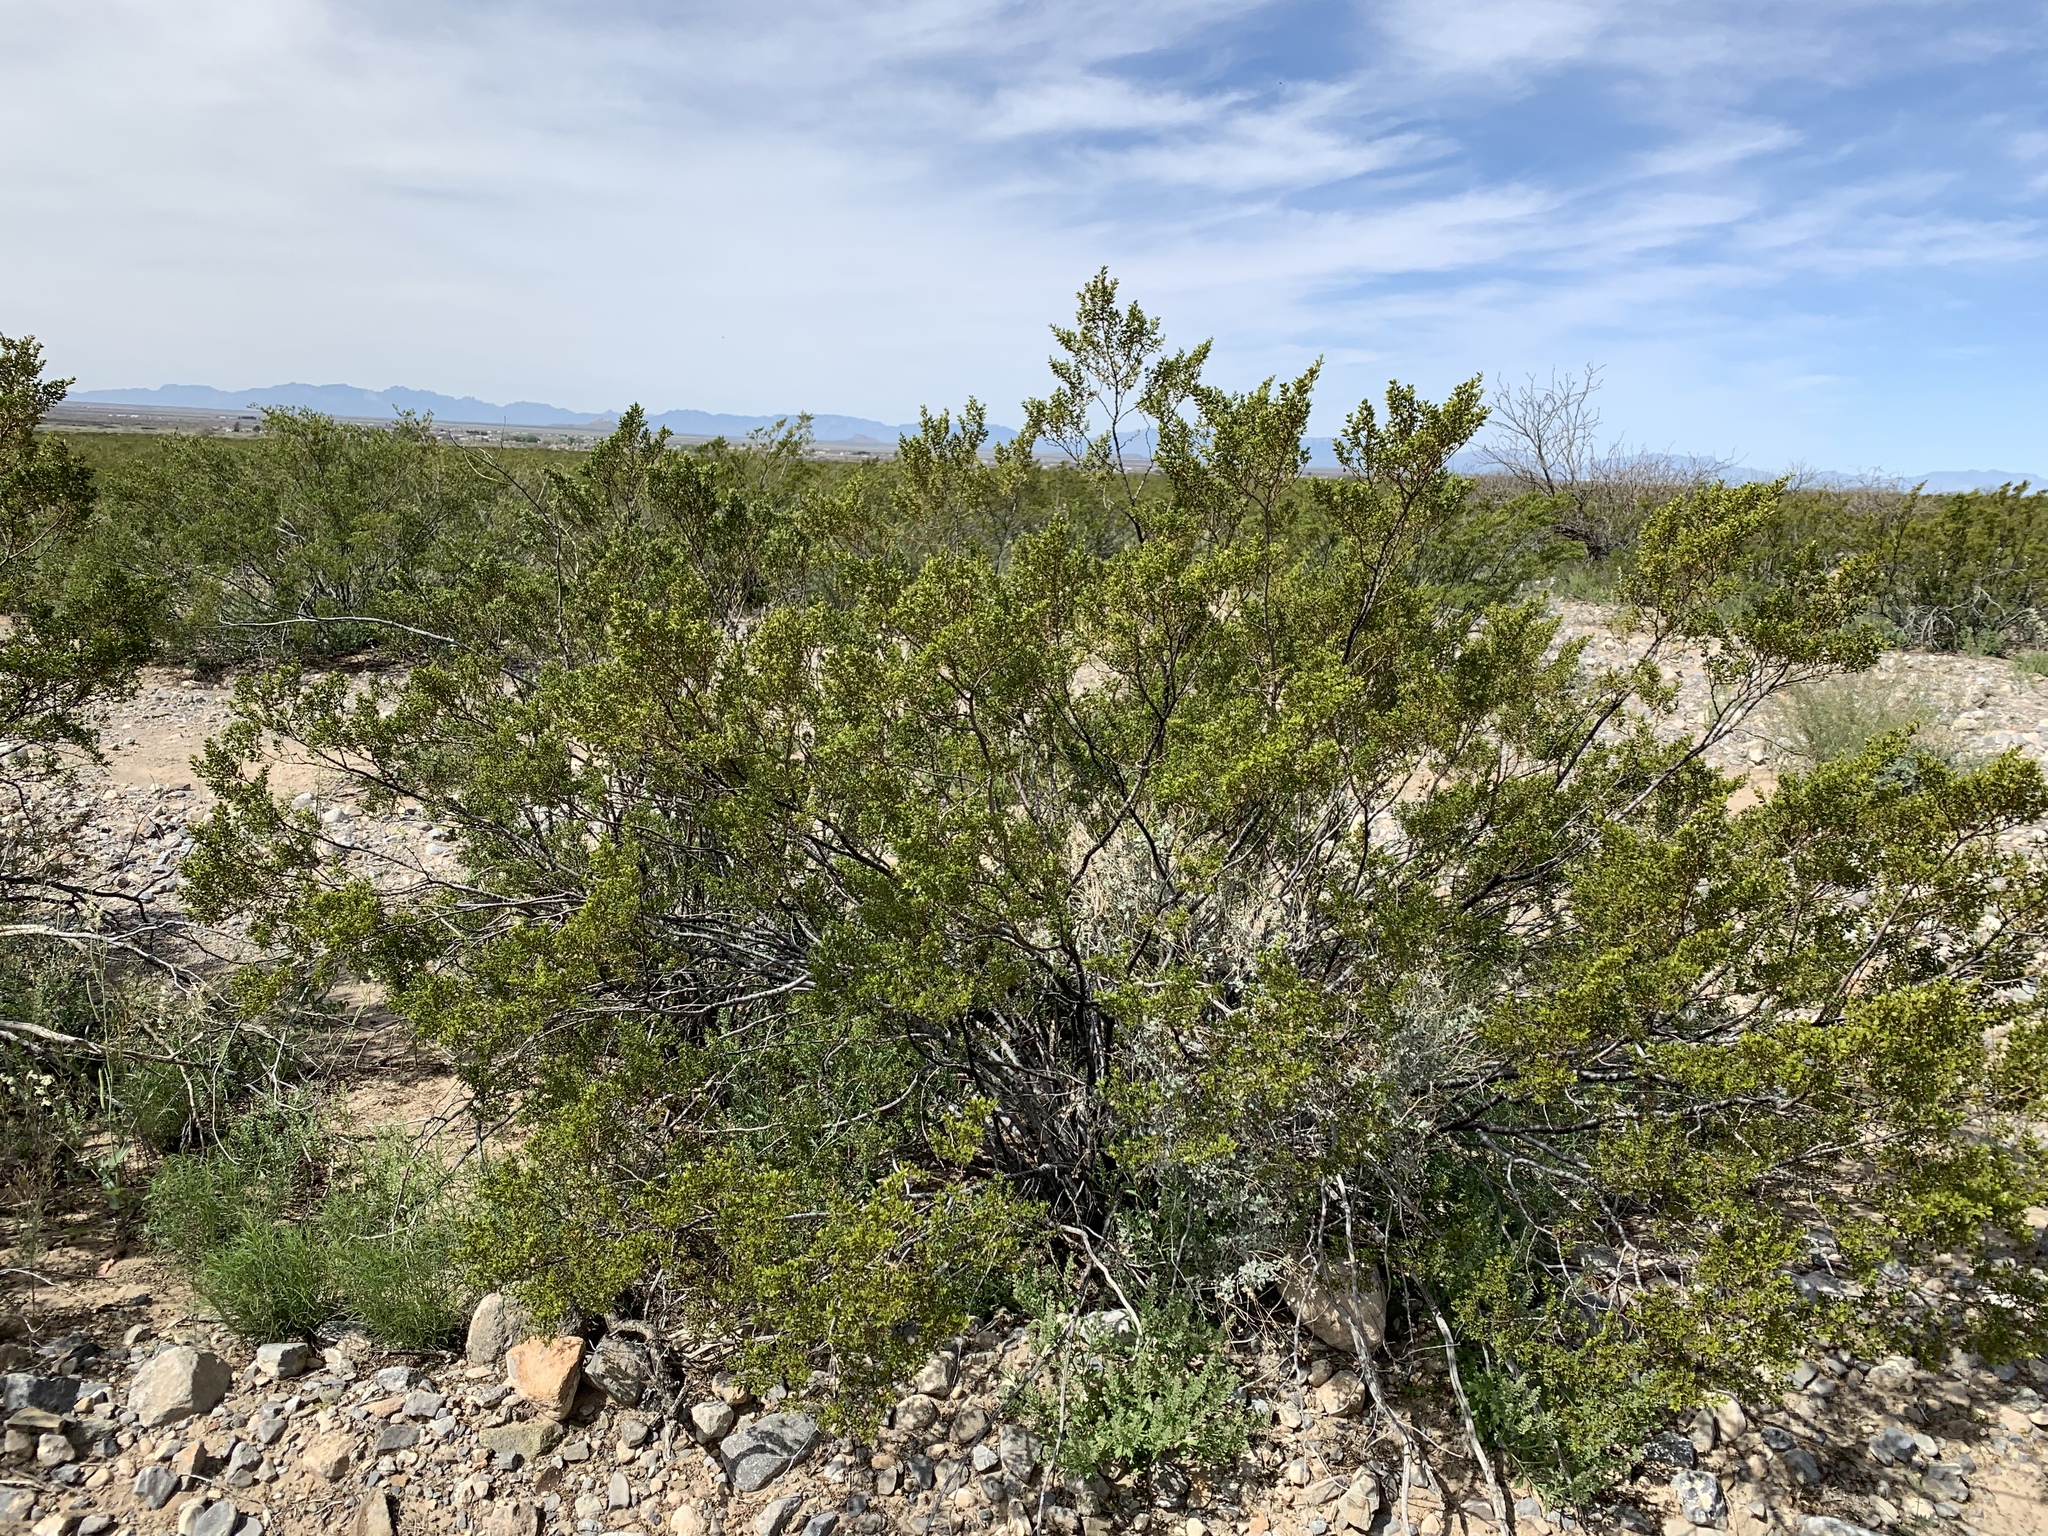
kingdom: Plantae
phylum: Tracheophyta
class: Magnoliopsida
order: Zygophyllales
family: Zygophyllaceae
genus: Larrea
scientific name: Larrea tridentata
